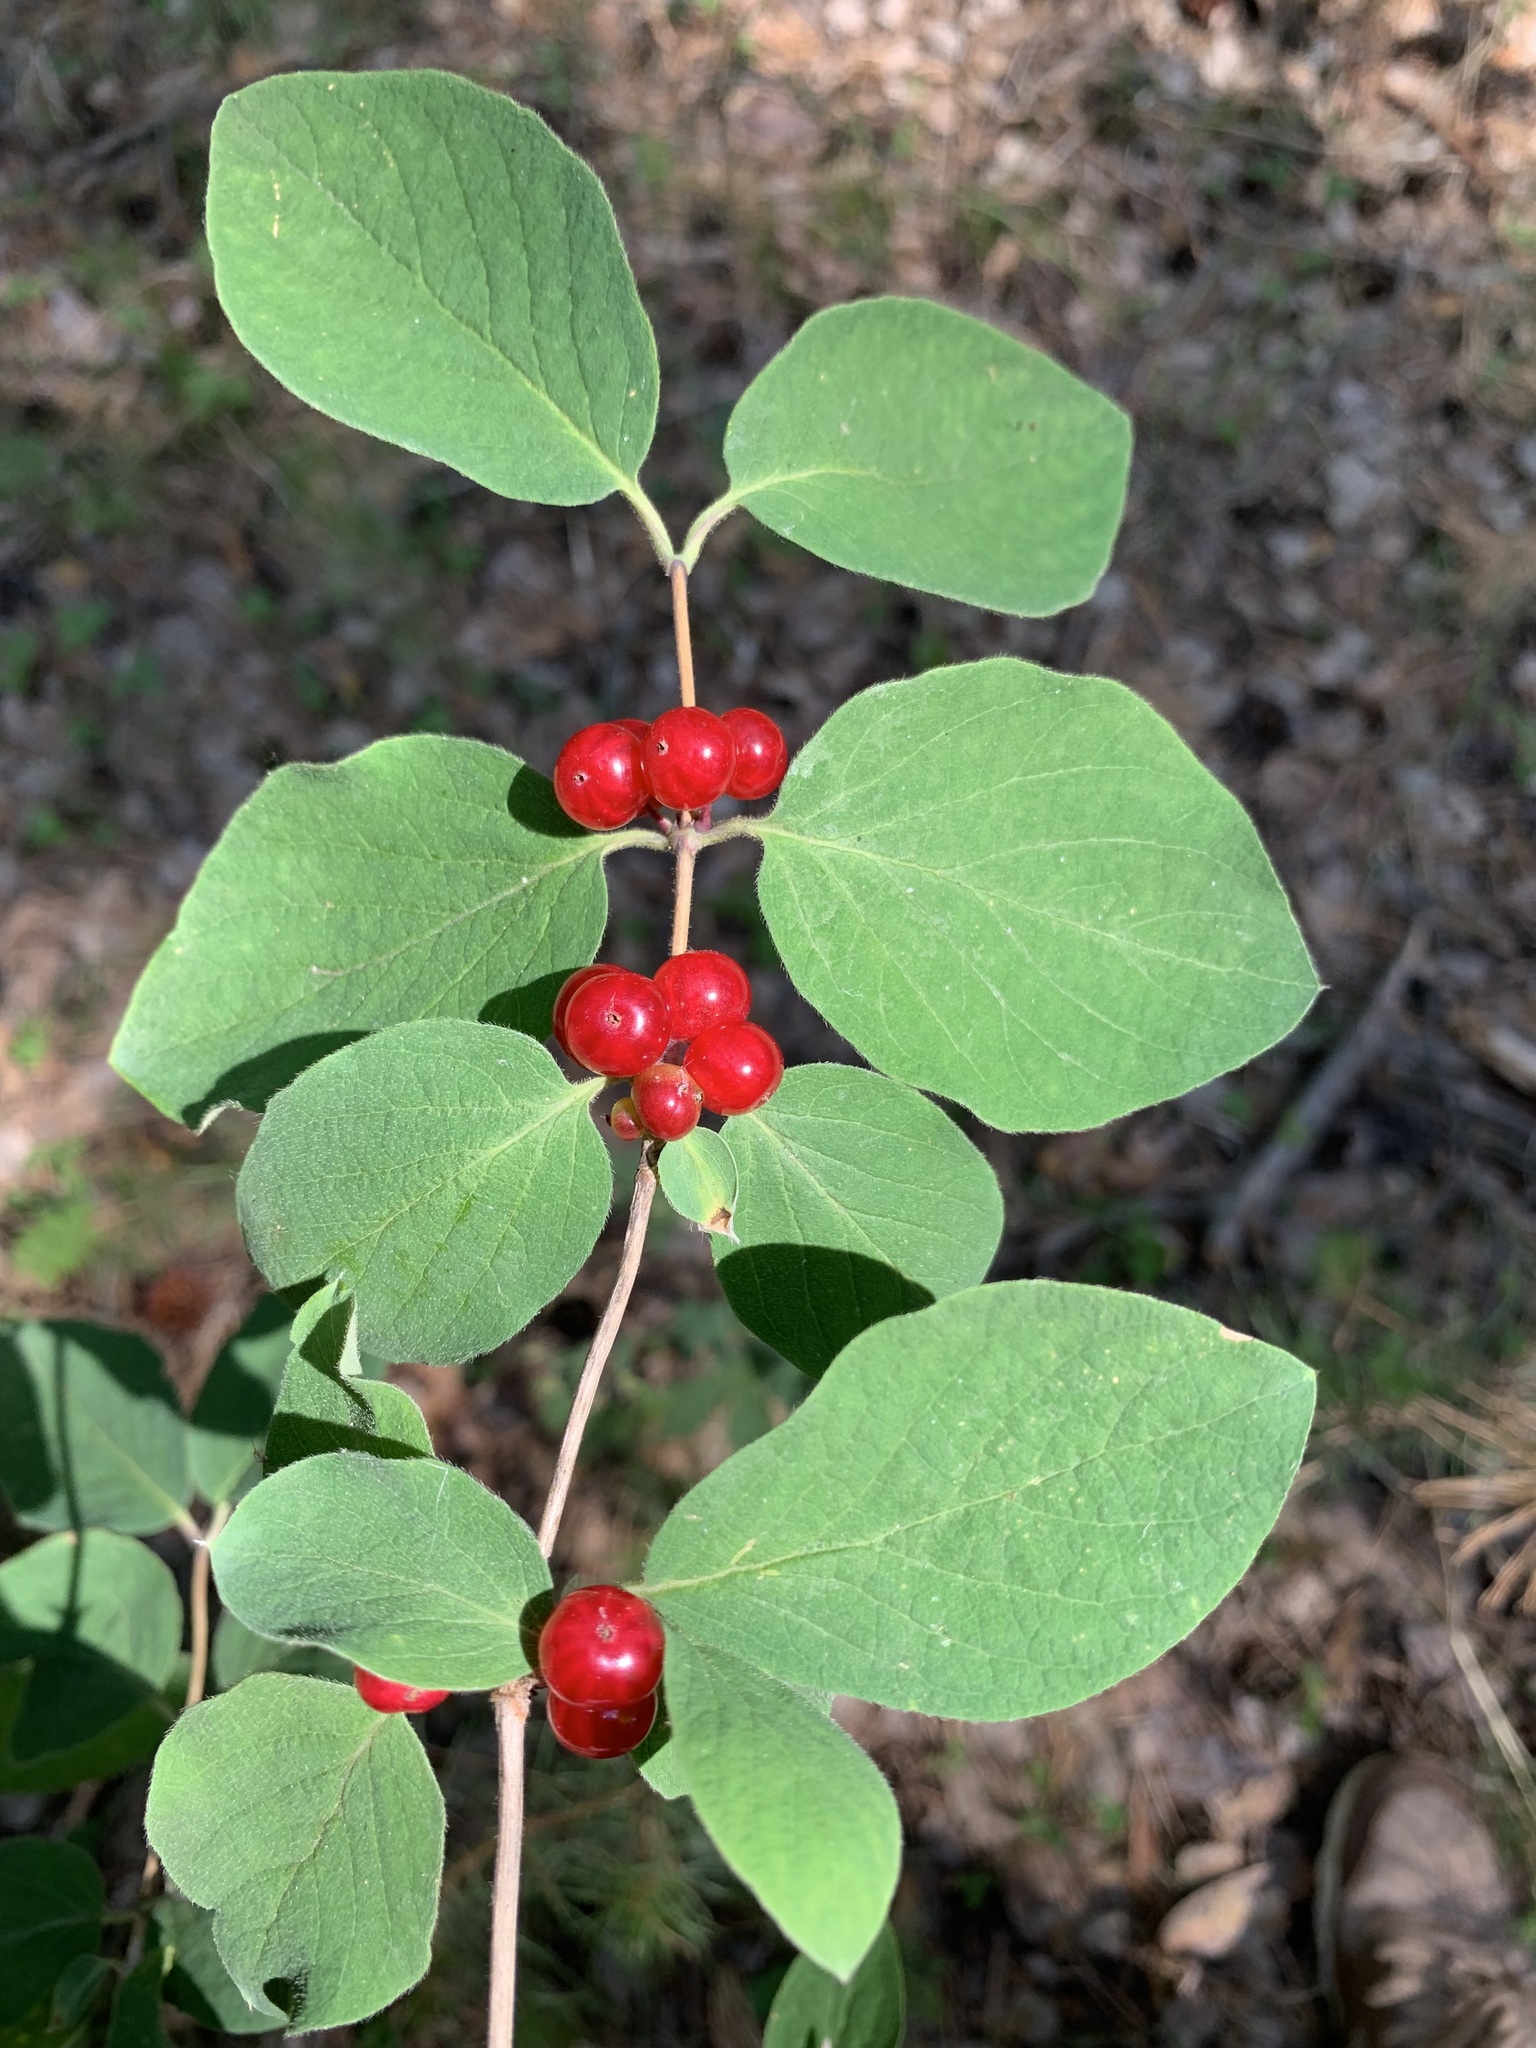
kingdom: Plantae
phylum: Tracheophyta
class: Magnoliopsida
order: Dipsacales
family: Caprifoliaceae
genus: Lonicera
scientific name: Lonicera xylosteum
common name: Fly honeysuckle
